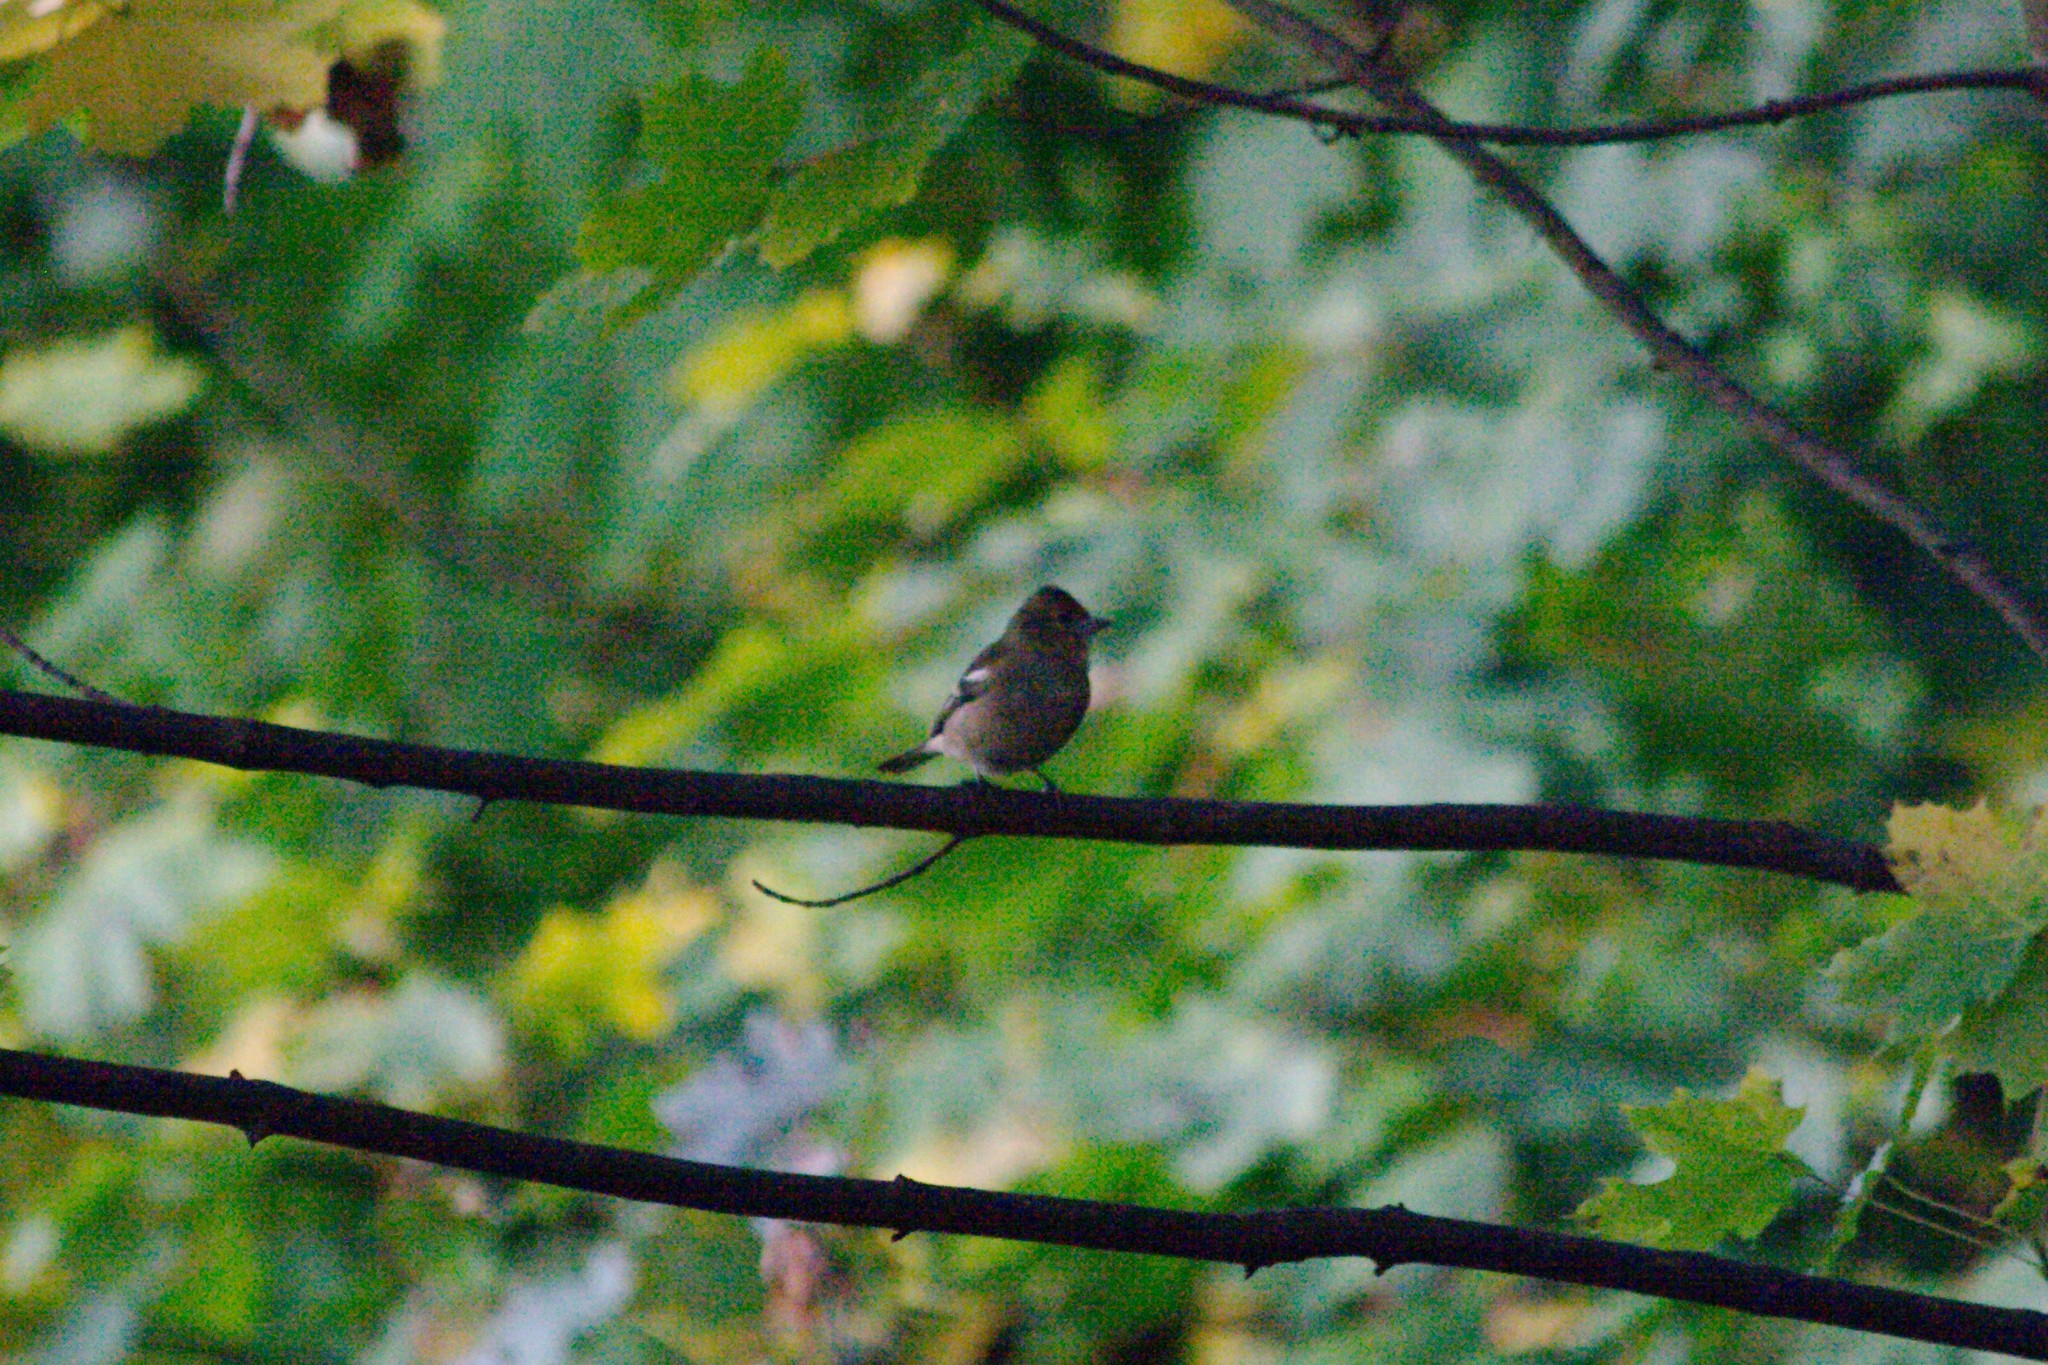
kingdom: Animalia
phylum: Chordata
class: Aves
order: Passeriformes
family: Fringillidae
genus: Fringilla
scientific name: Fringilla coelebs
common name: Common chaffinch
